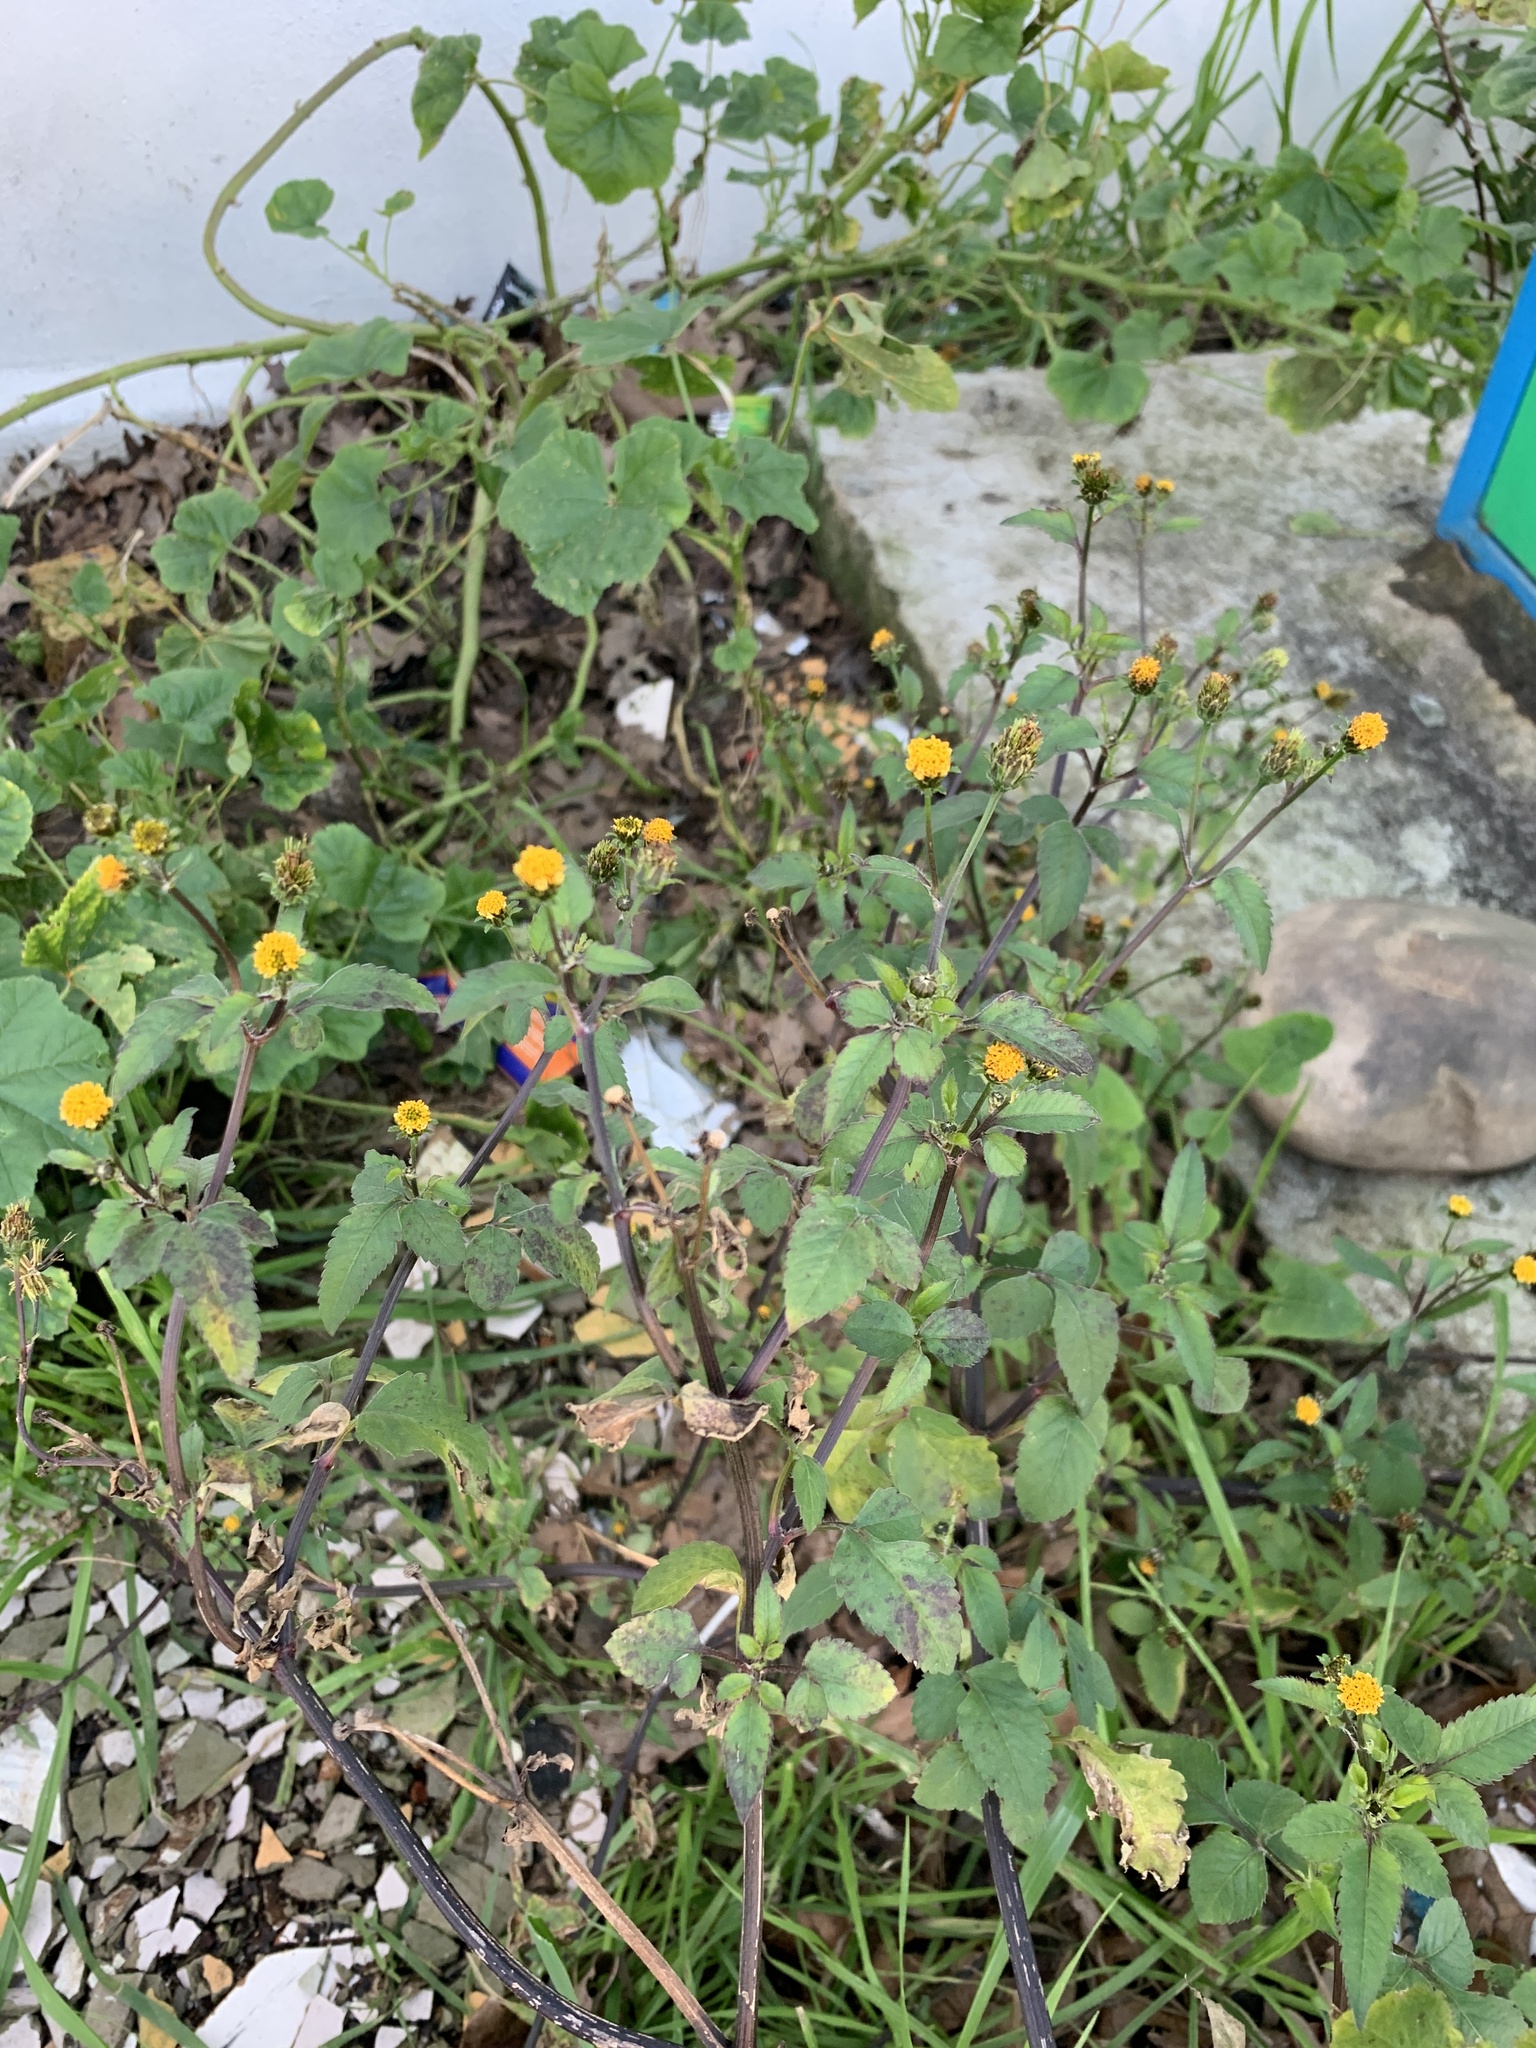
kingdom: Plantae
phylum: Tracheophyta
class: Magnoliopsida
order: Asterales
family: Asteraceae
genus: Bidens
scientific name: Bidens pilosa
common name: Black-jack
